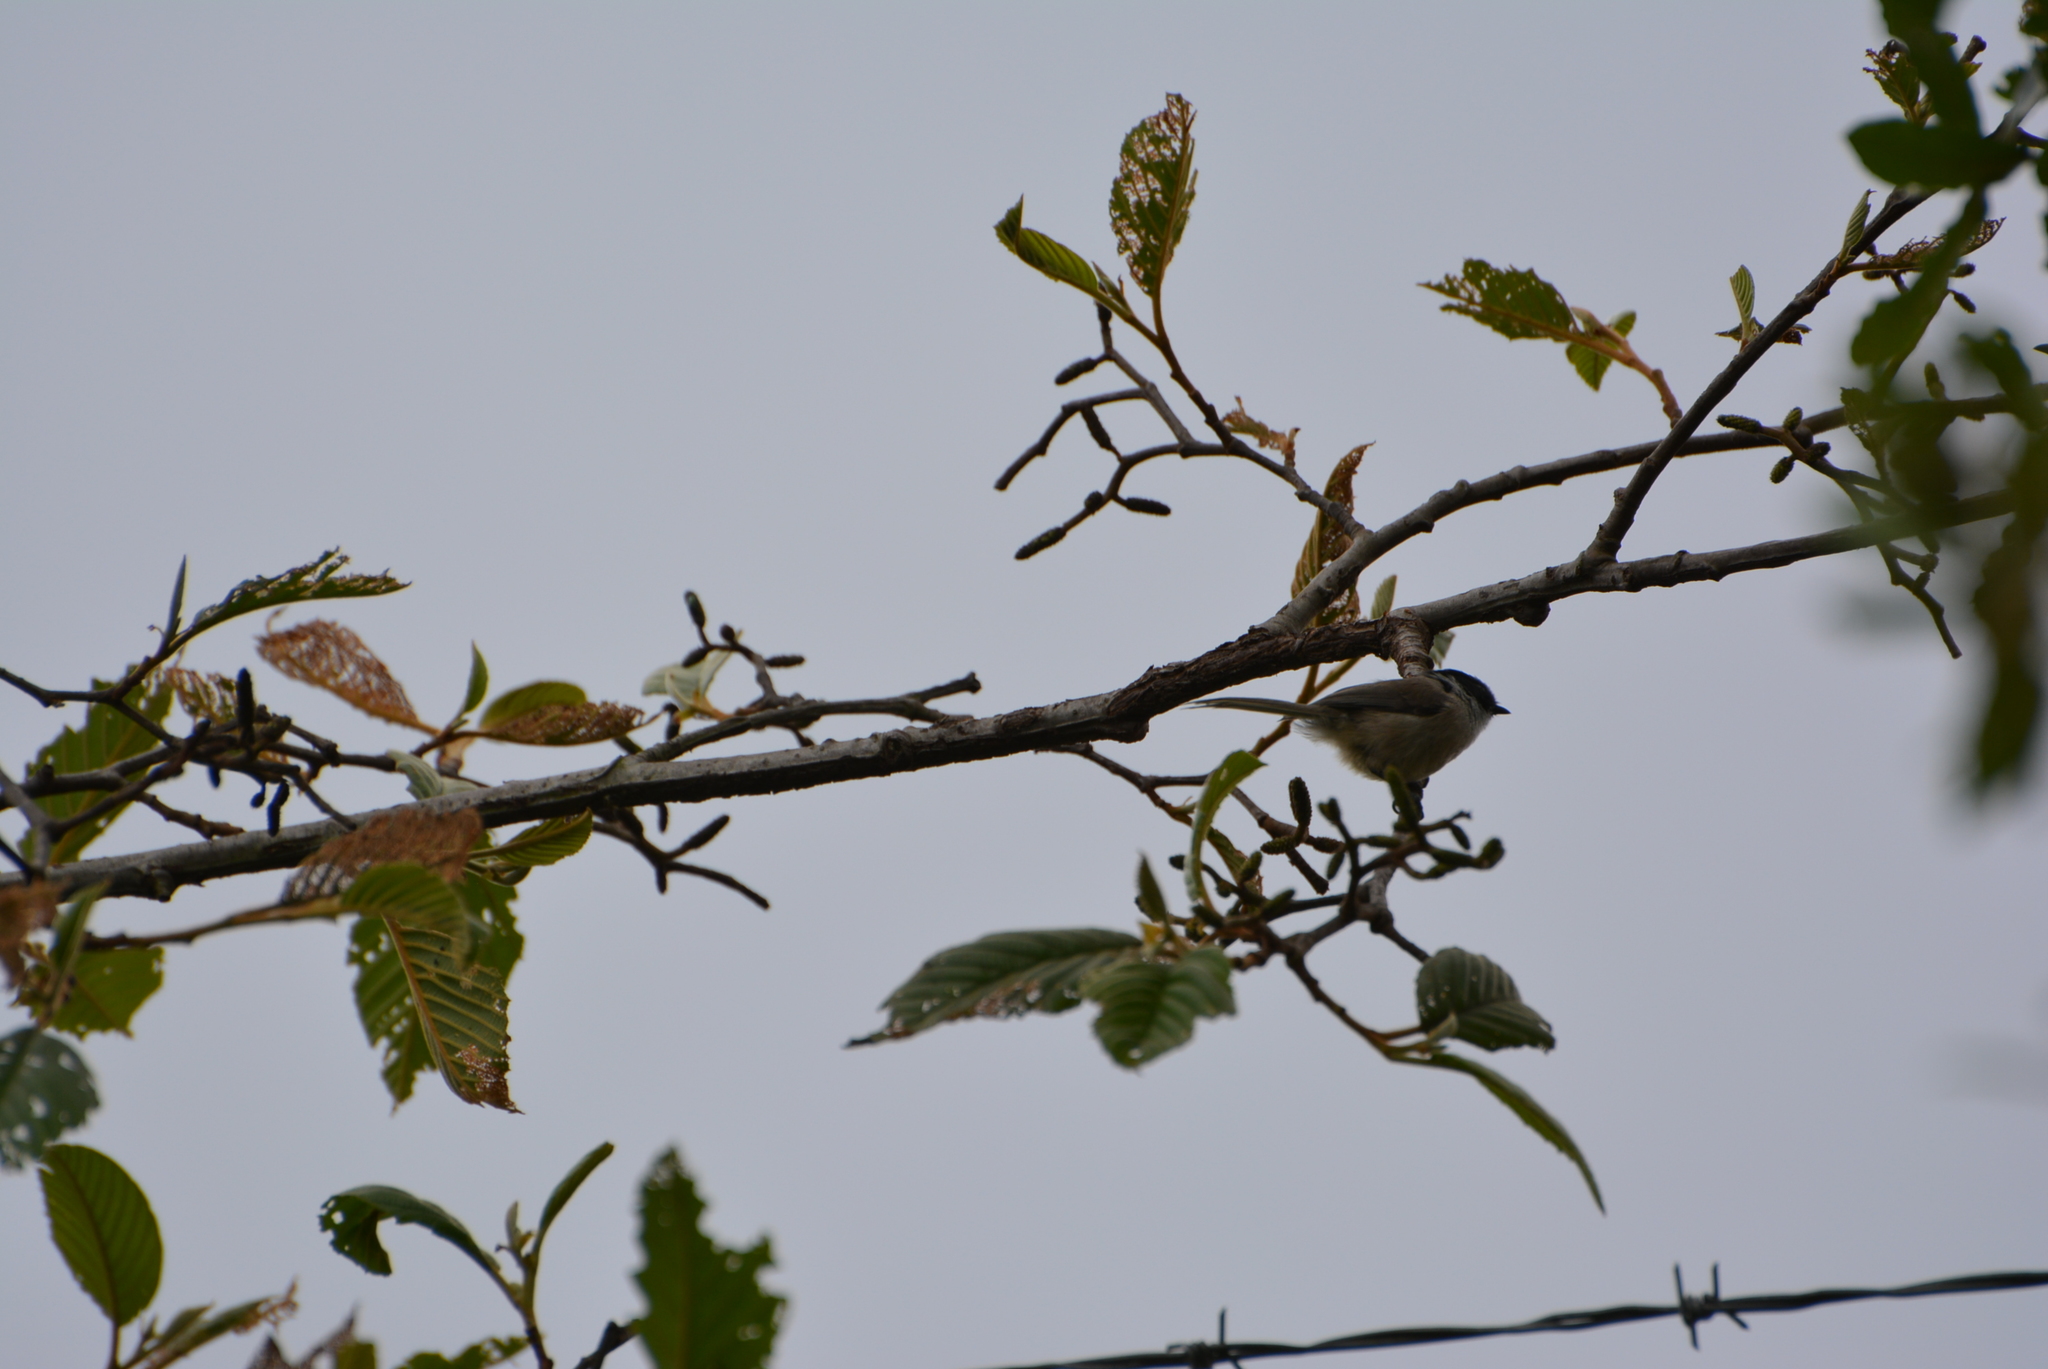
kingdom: Animalia
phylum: Chordata
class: Aves
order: Passeriformes
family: Aegithalidae
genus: Psaltriparus
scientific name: Psaltriparus minimus
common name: American bushtit
